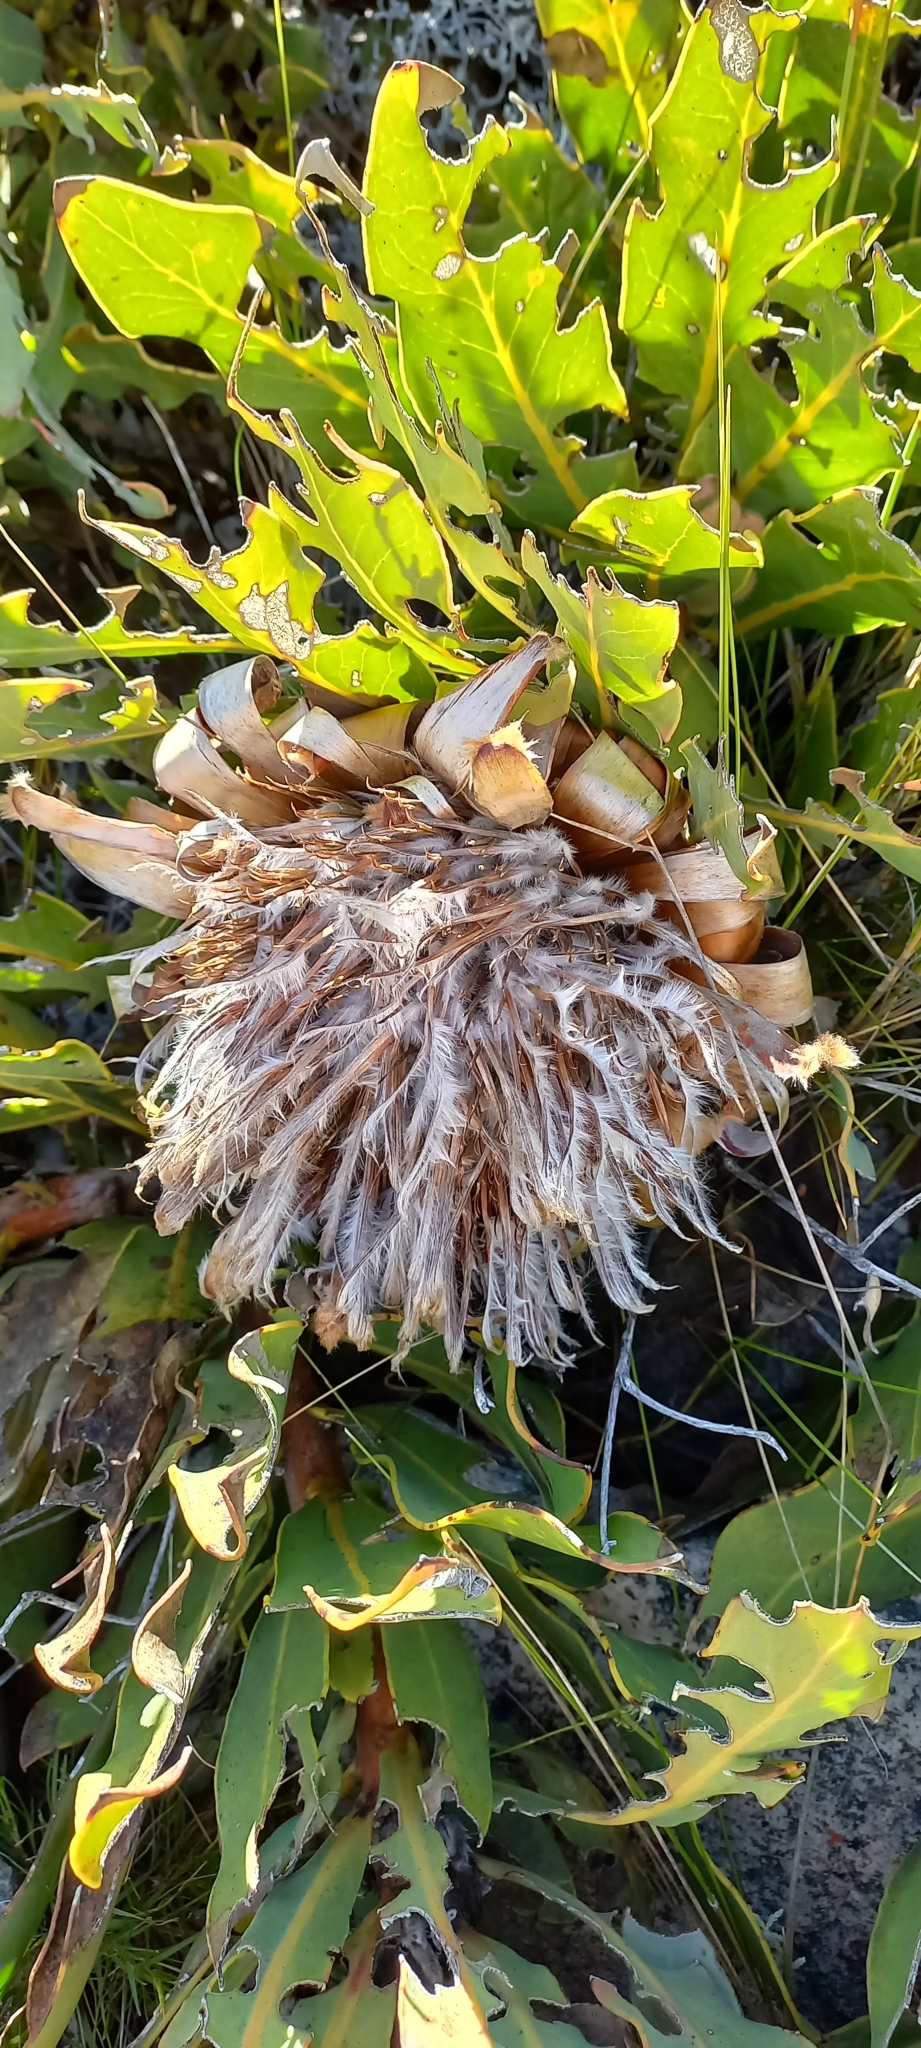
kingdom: Plantae
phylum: Tracheophyta
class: Magnoliopsida
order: Proteales
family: Proteaceae
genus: Protea
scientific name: Protea magnifica
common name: Bearded sugarbush
